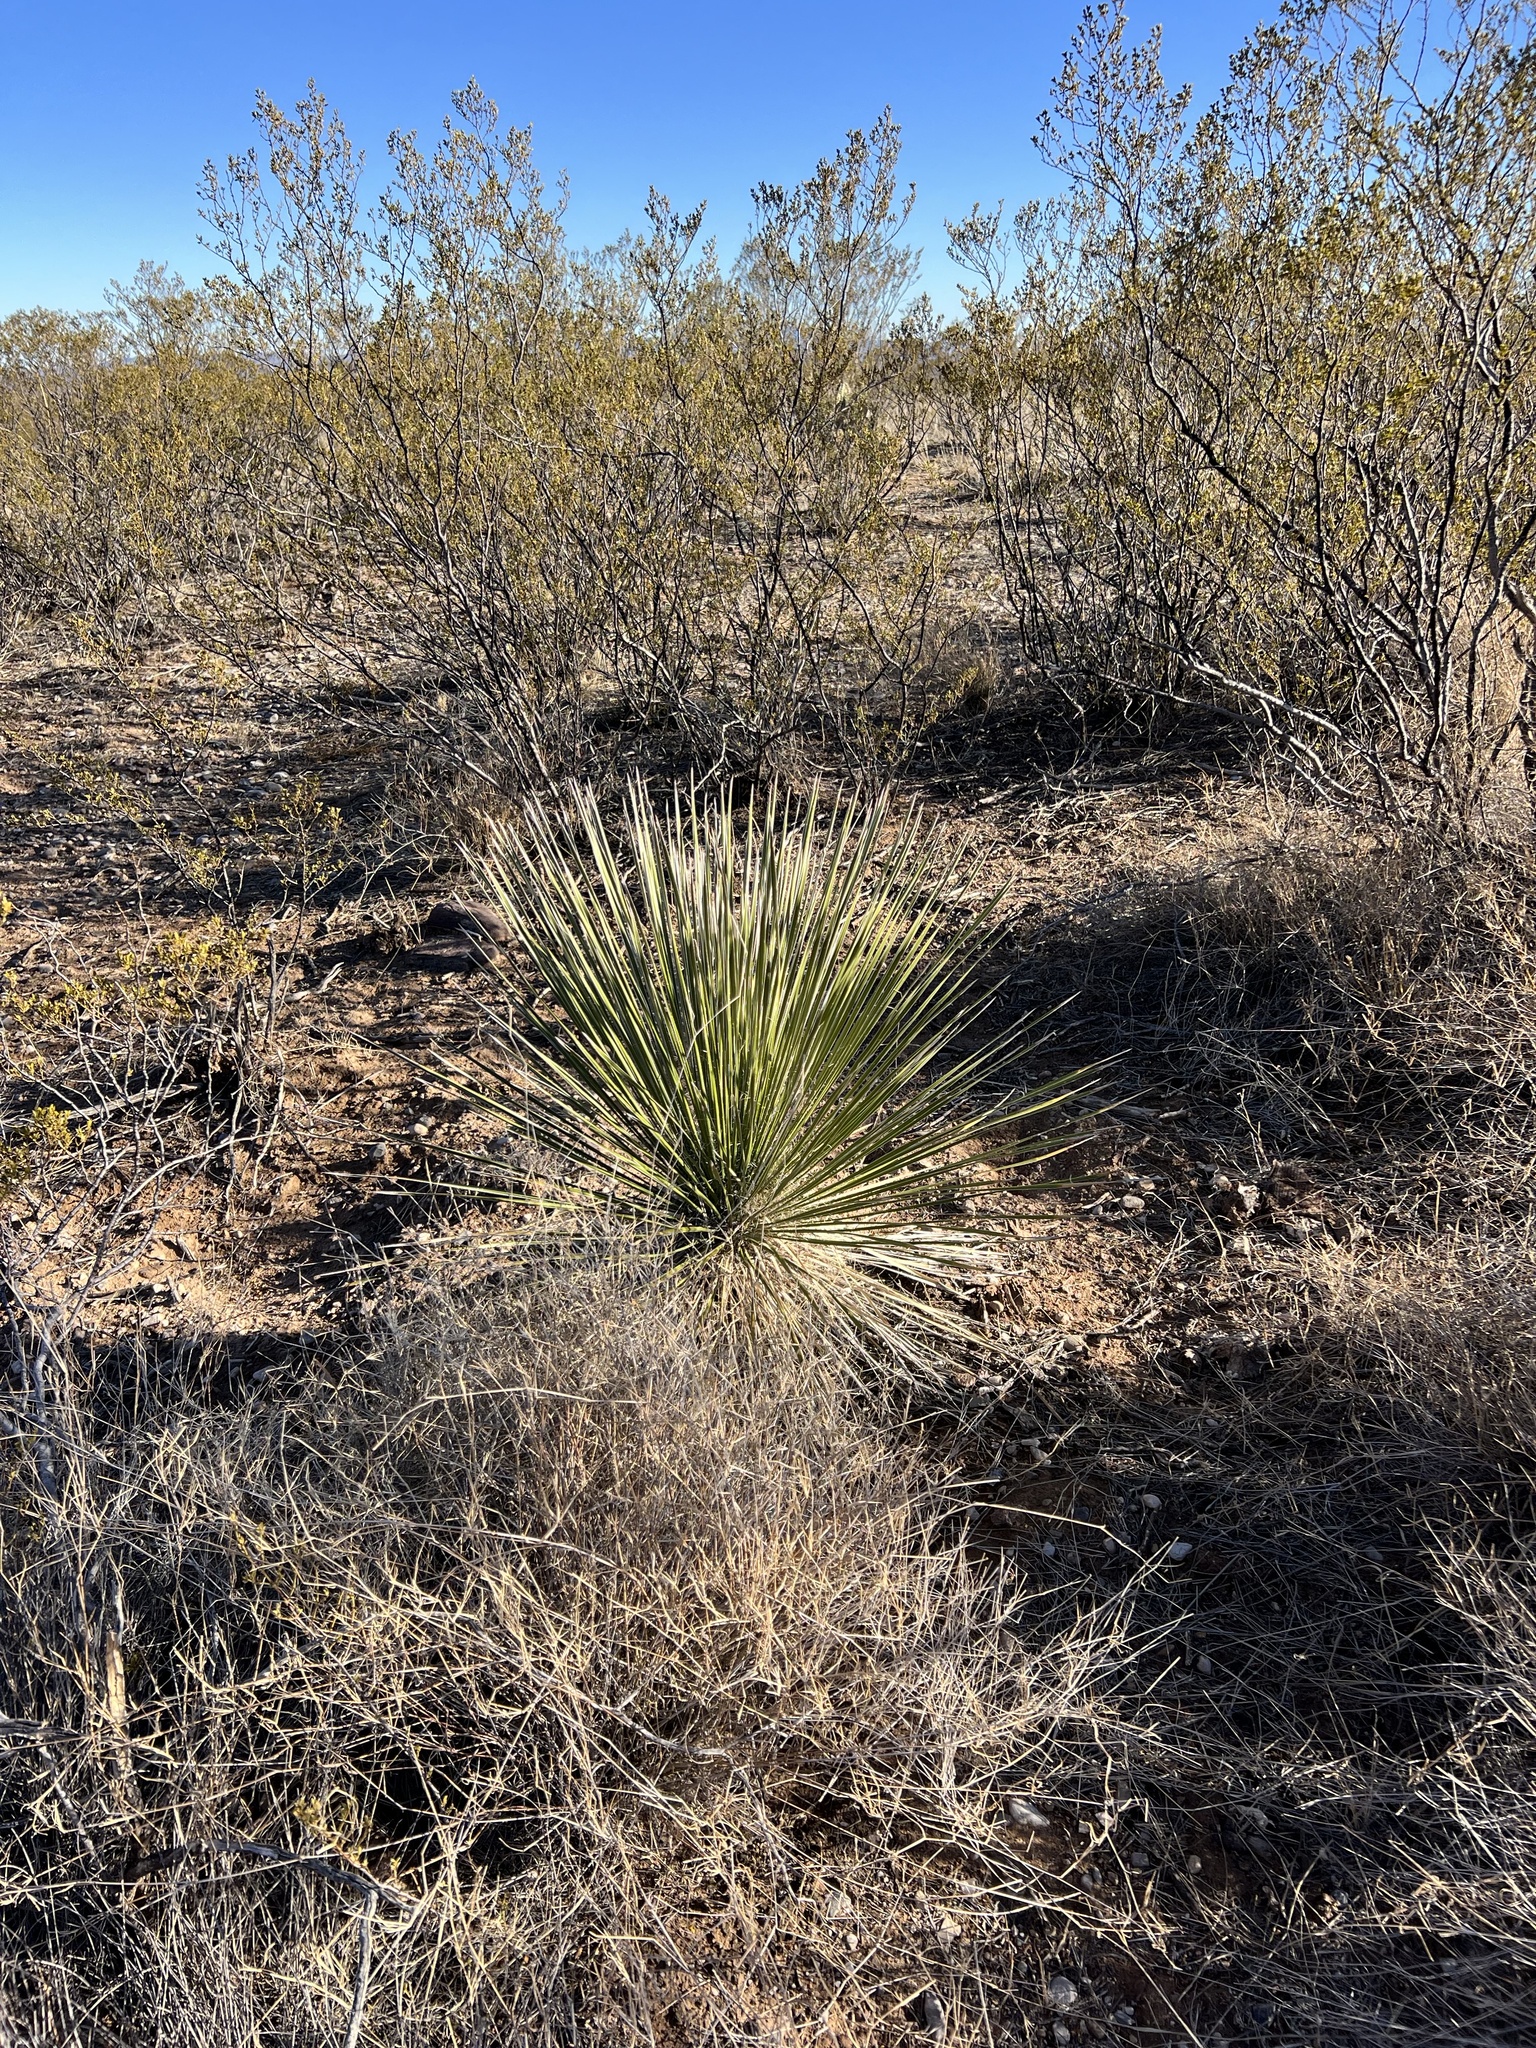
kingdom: Plantae
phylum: Tracheophyta
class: Liliopsida
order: Asparagales
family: Asparagaceae
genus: Yucca
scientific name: Yucca elata
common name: Palmella
